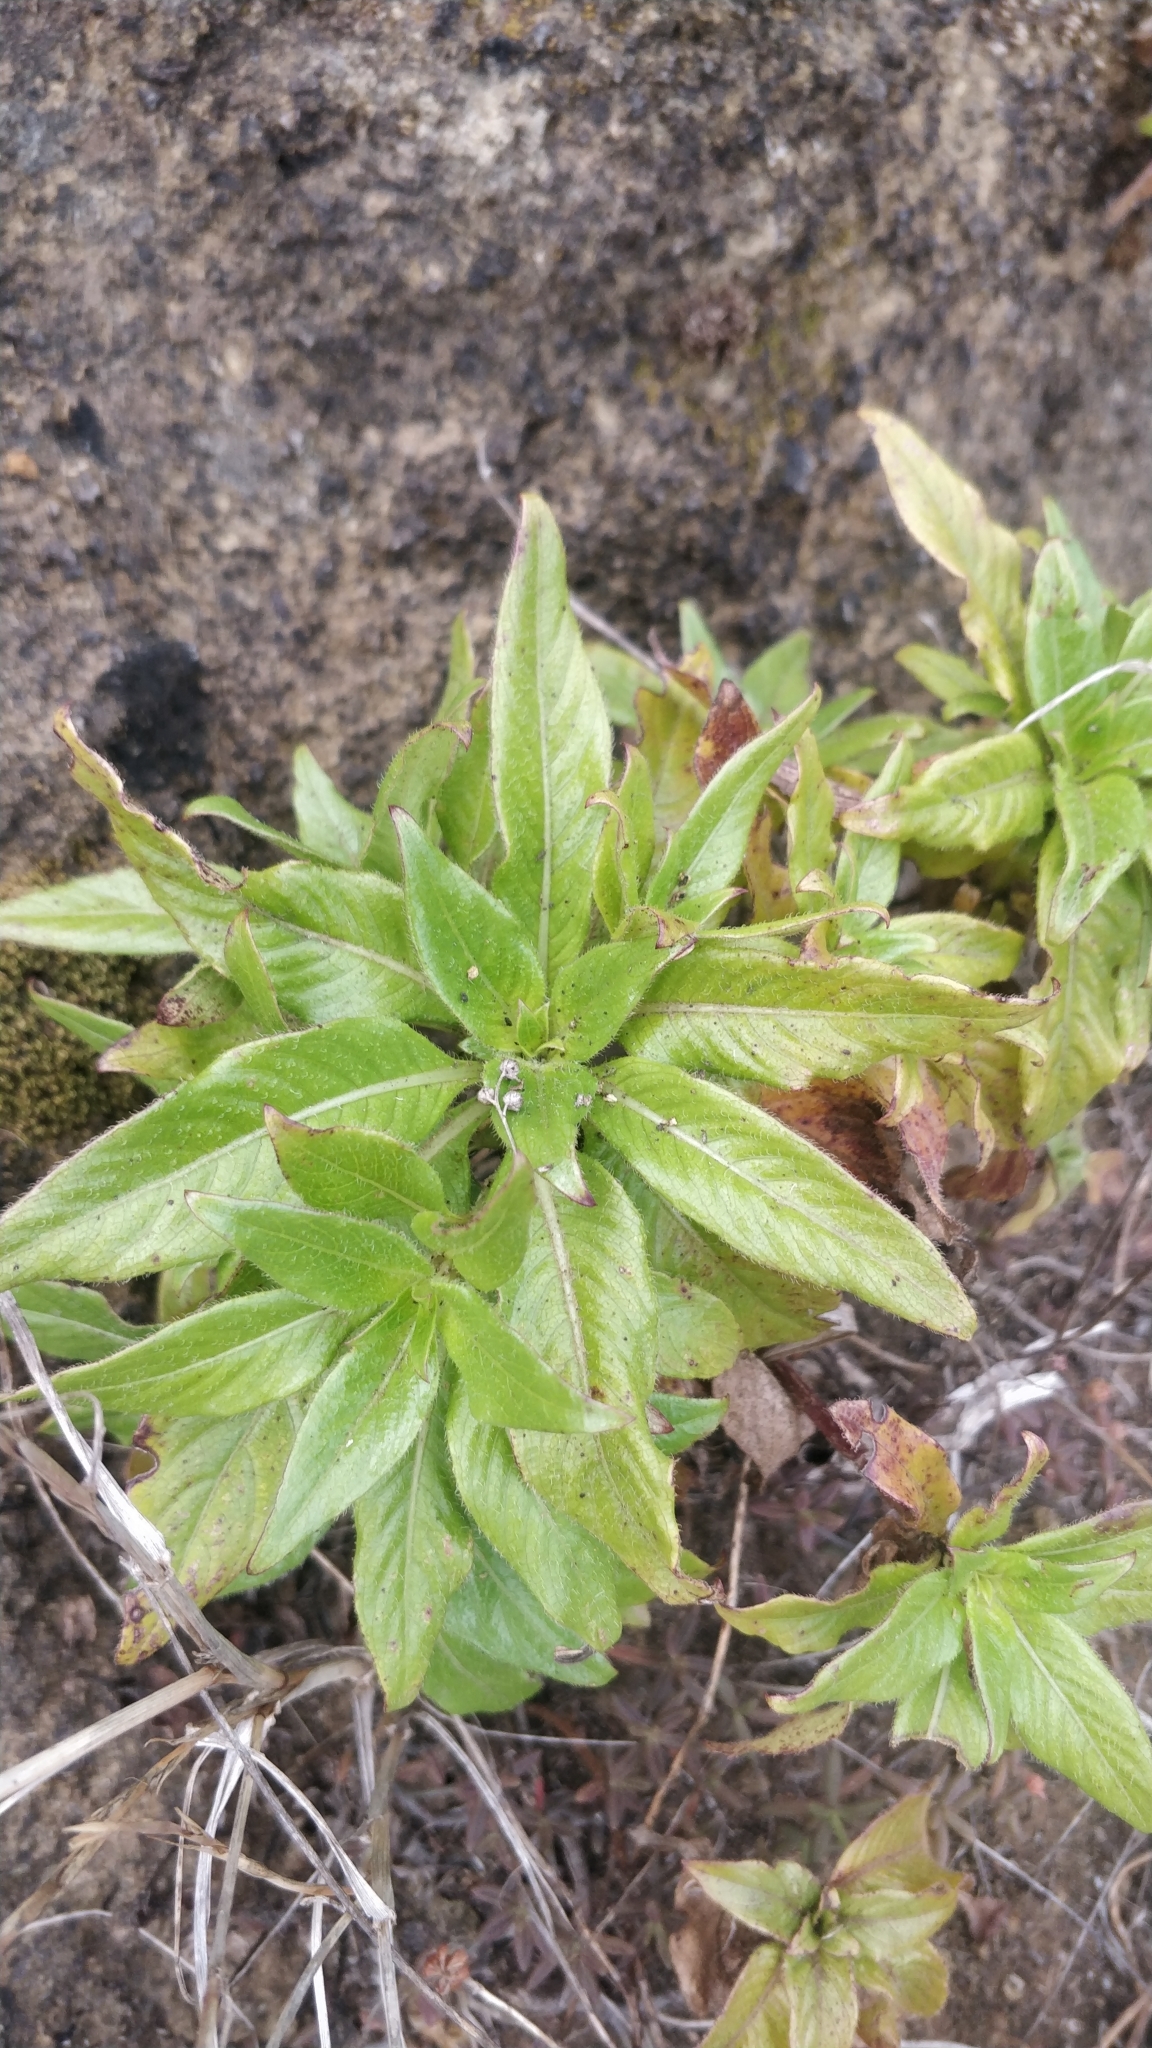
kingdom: Plantae
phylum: Tracheophyta
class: Magnoliopsida
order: Gentianales
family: Rubiaceae
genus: Phyllis
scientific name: Phyllis nobla
